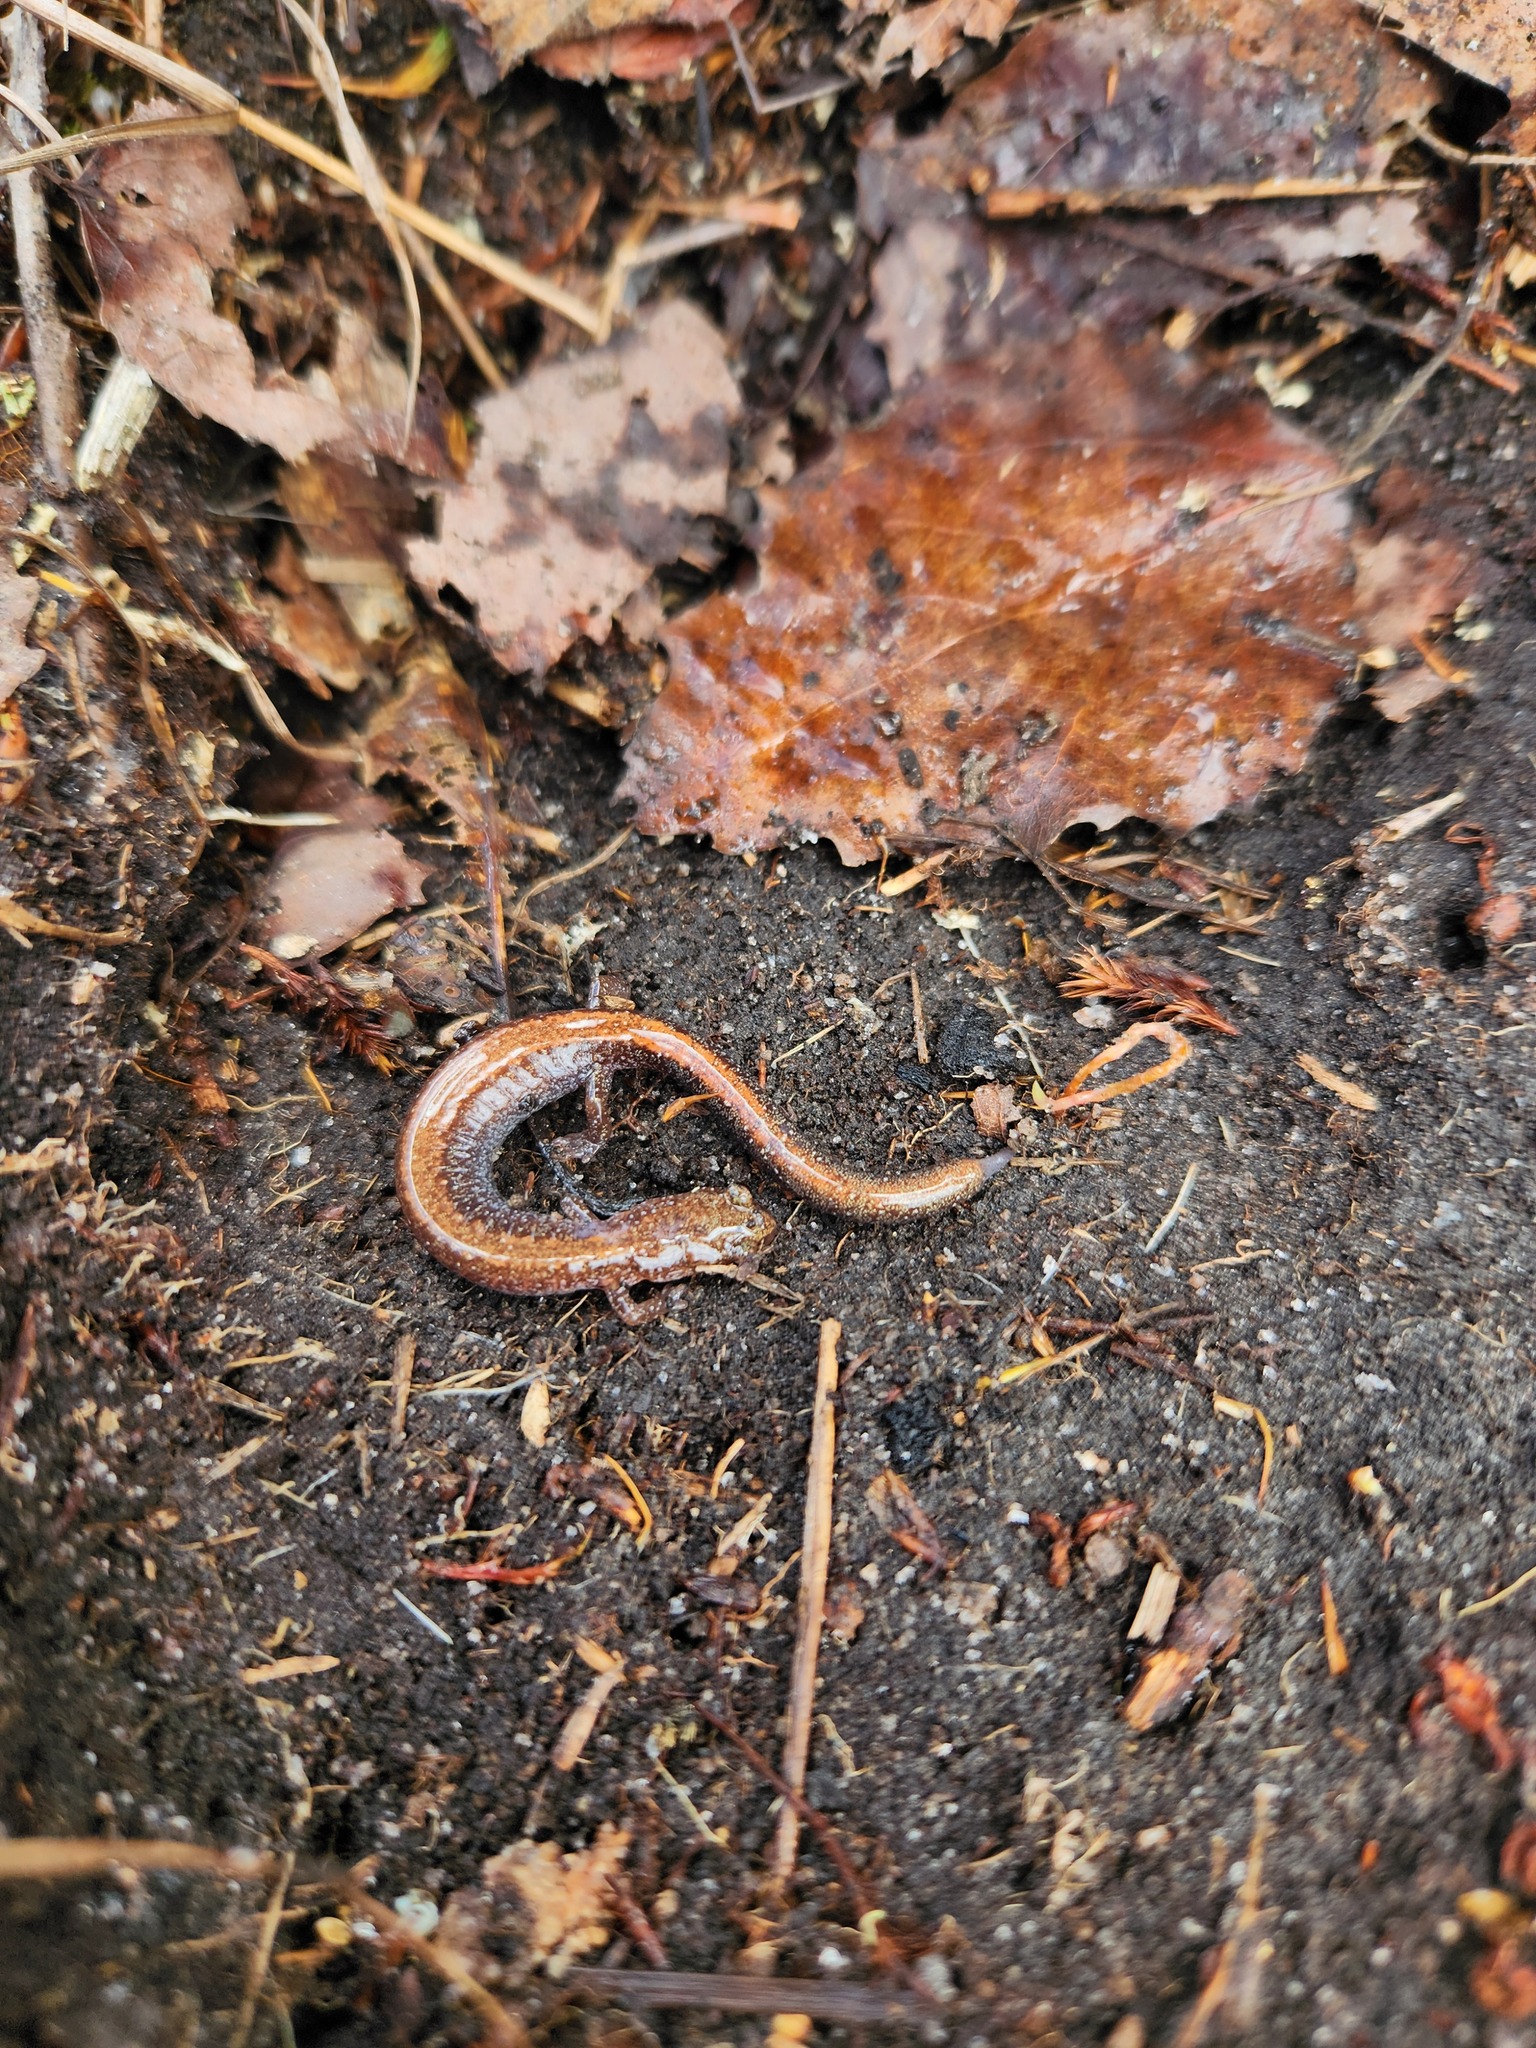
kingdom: Animalia
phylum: Chordata
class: Amphibia
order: Caudata
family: Plethodontidae
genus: Plethodon
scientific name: Plethodon cinereus
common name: Redback salamander
